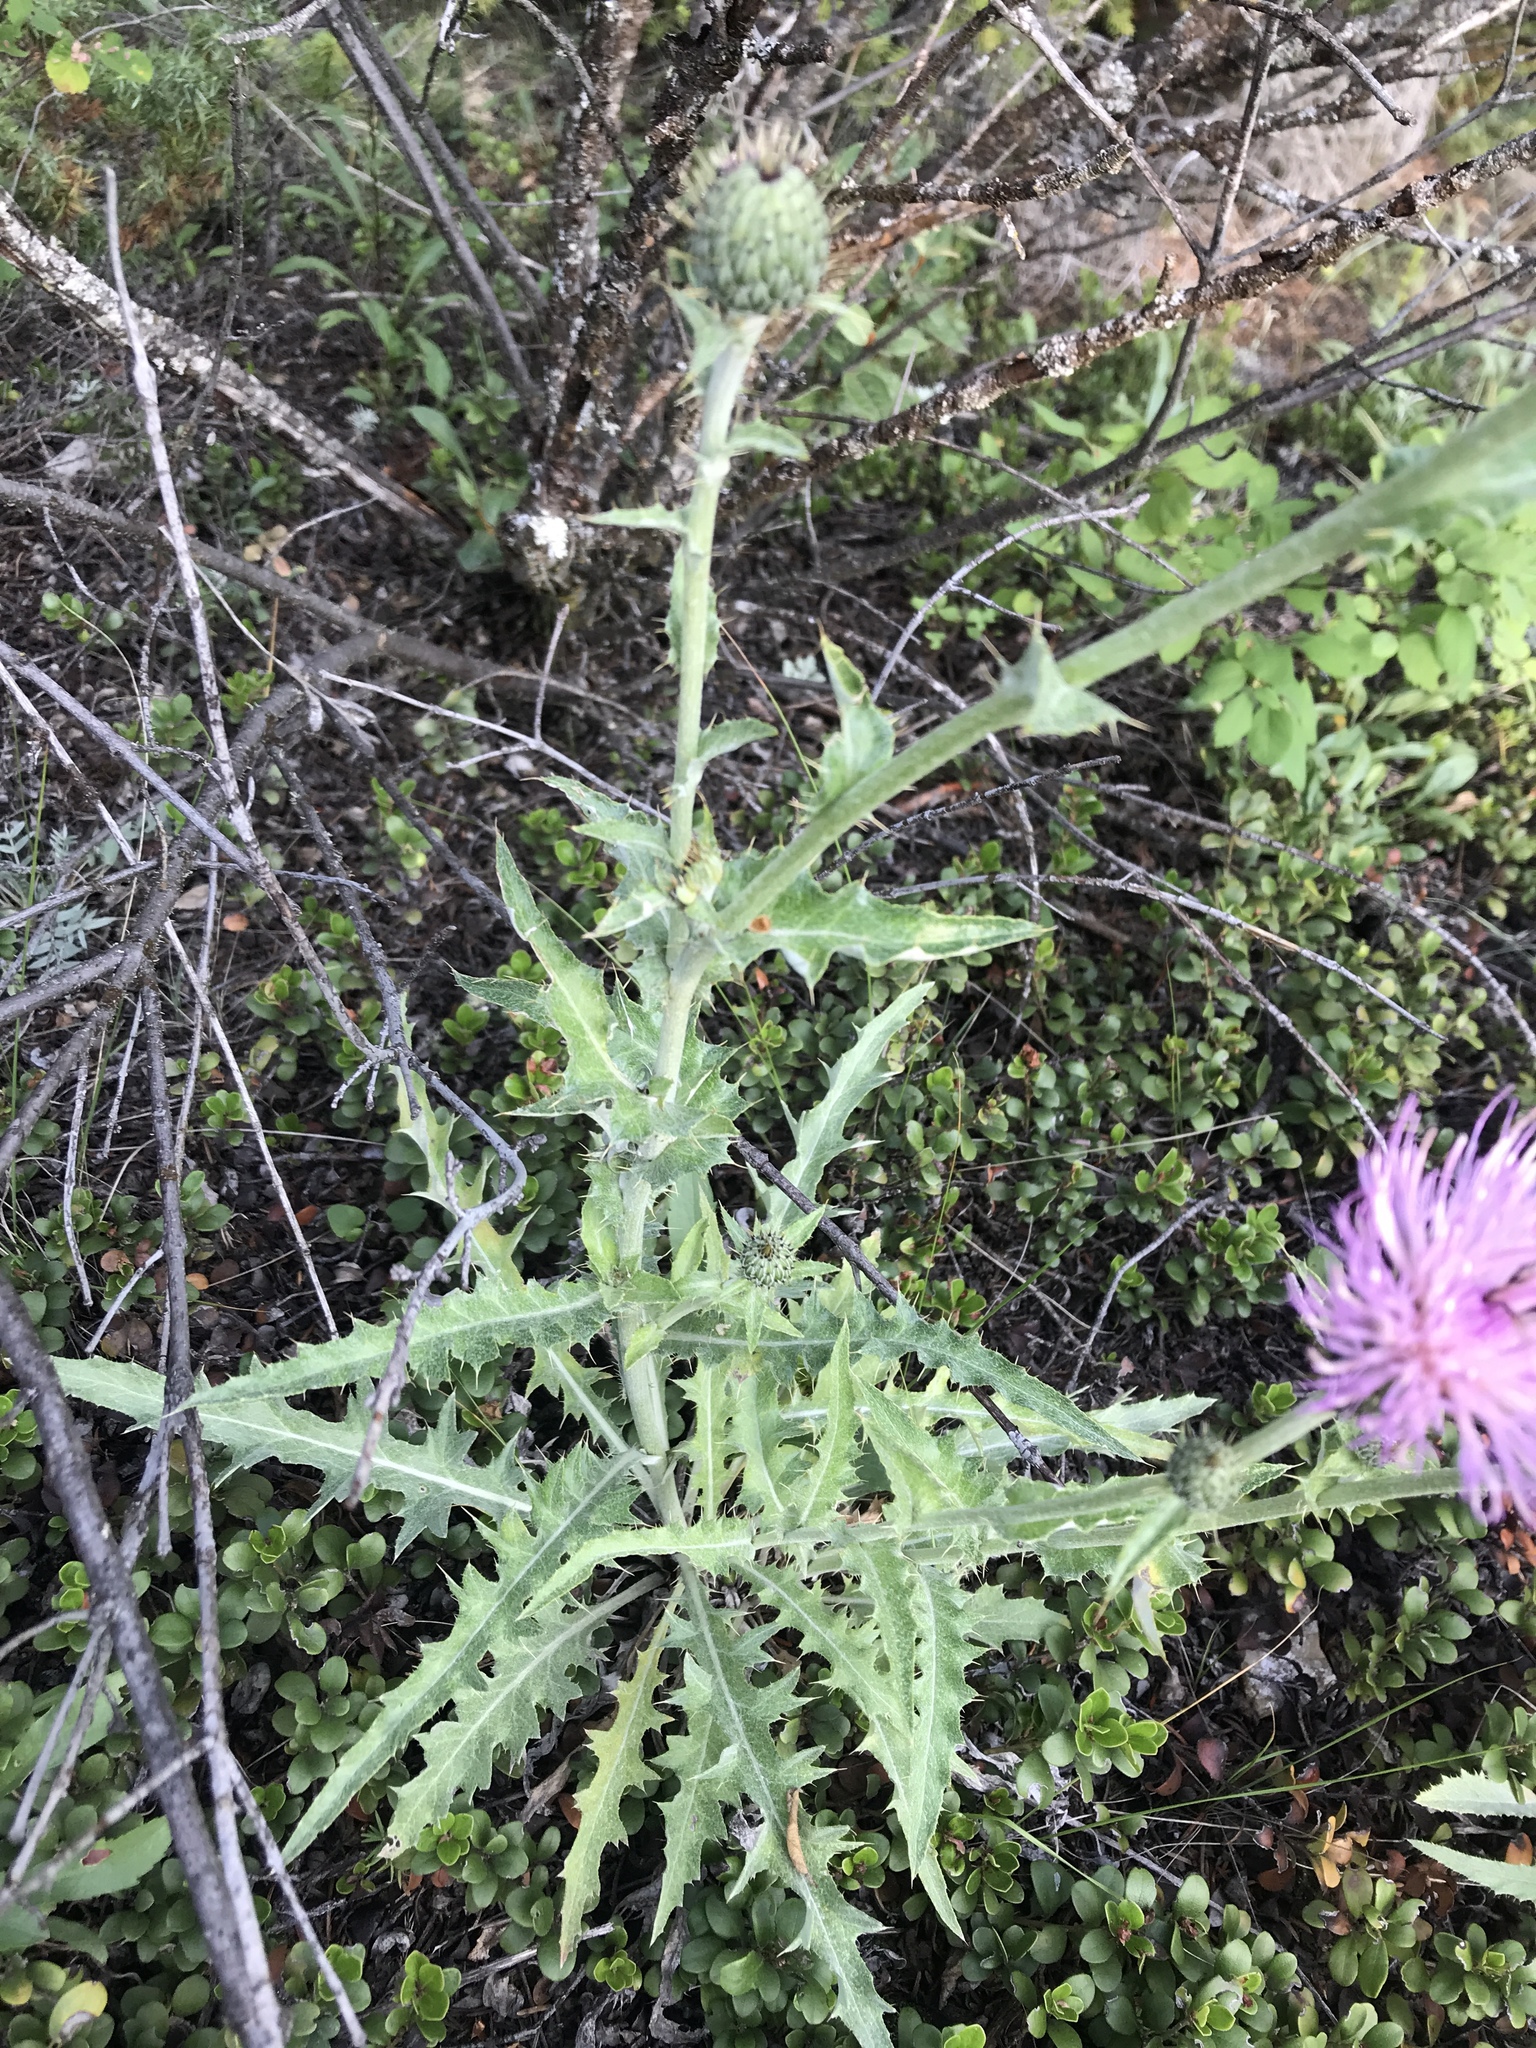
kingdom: Plantae
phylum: Tracheophyta
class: Magnoliopsida
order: Asterales
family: Asteraceae
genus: Cirsium
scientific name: Cirsium undulatum
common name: Pasture thistle
